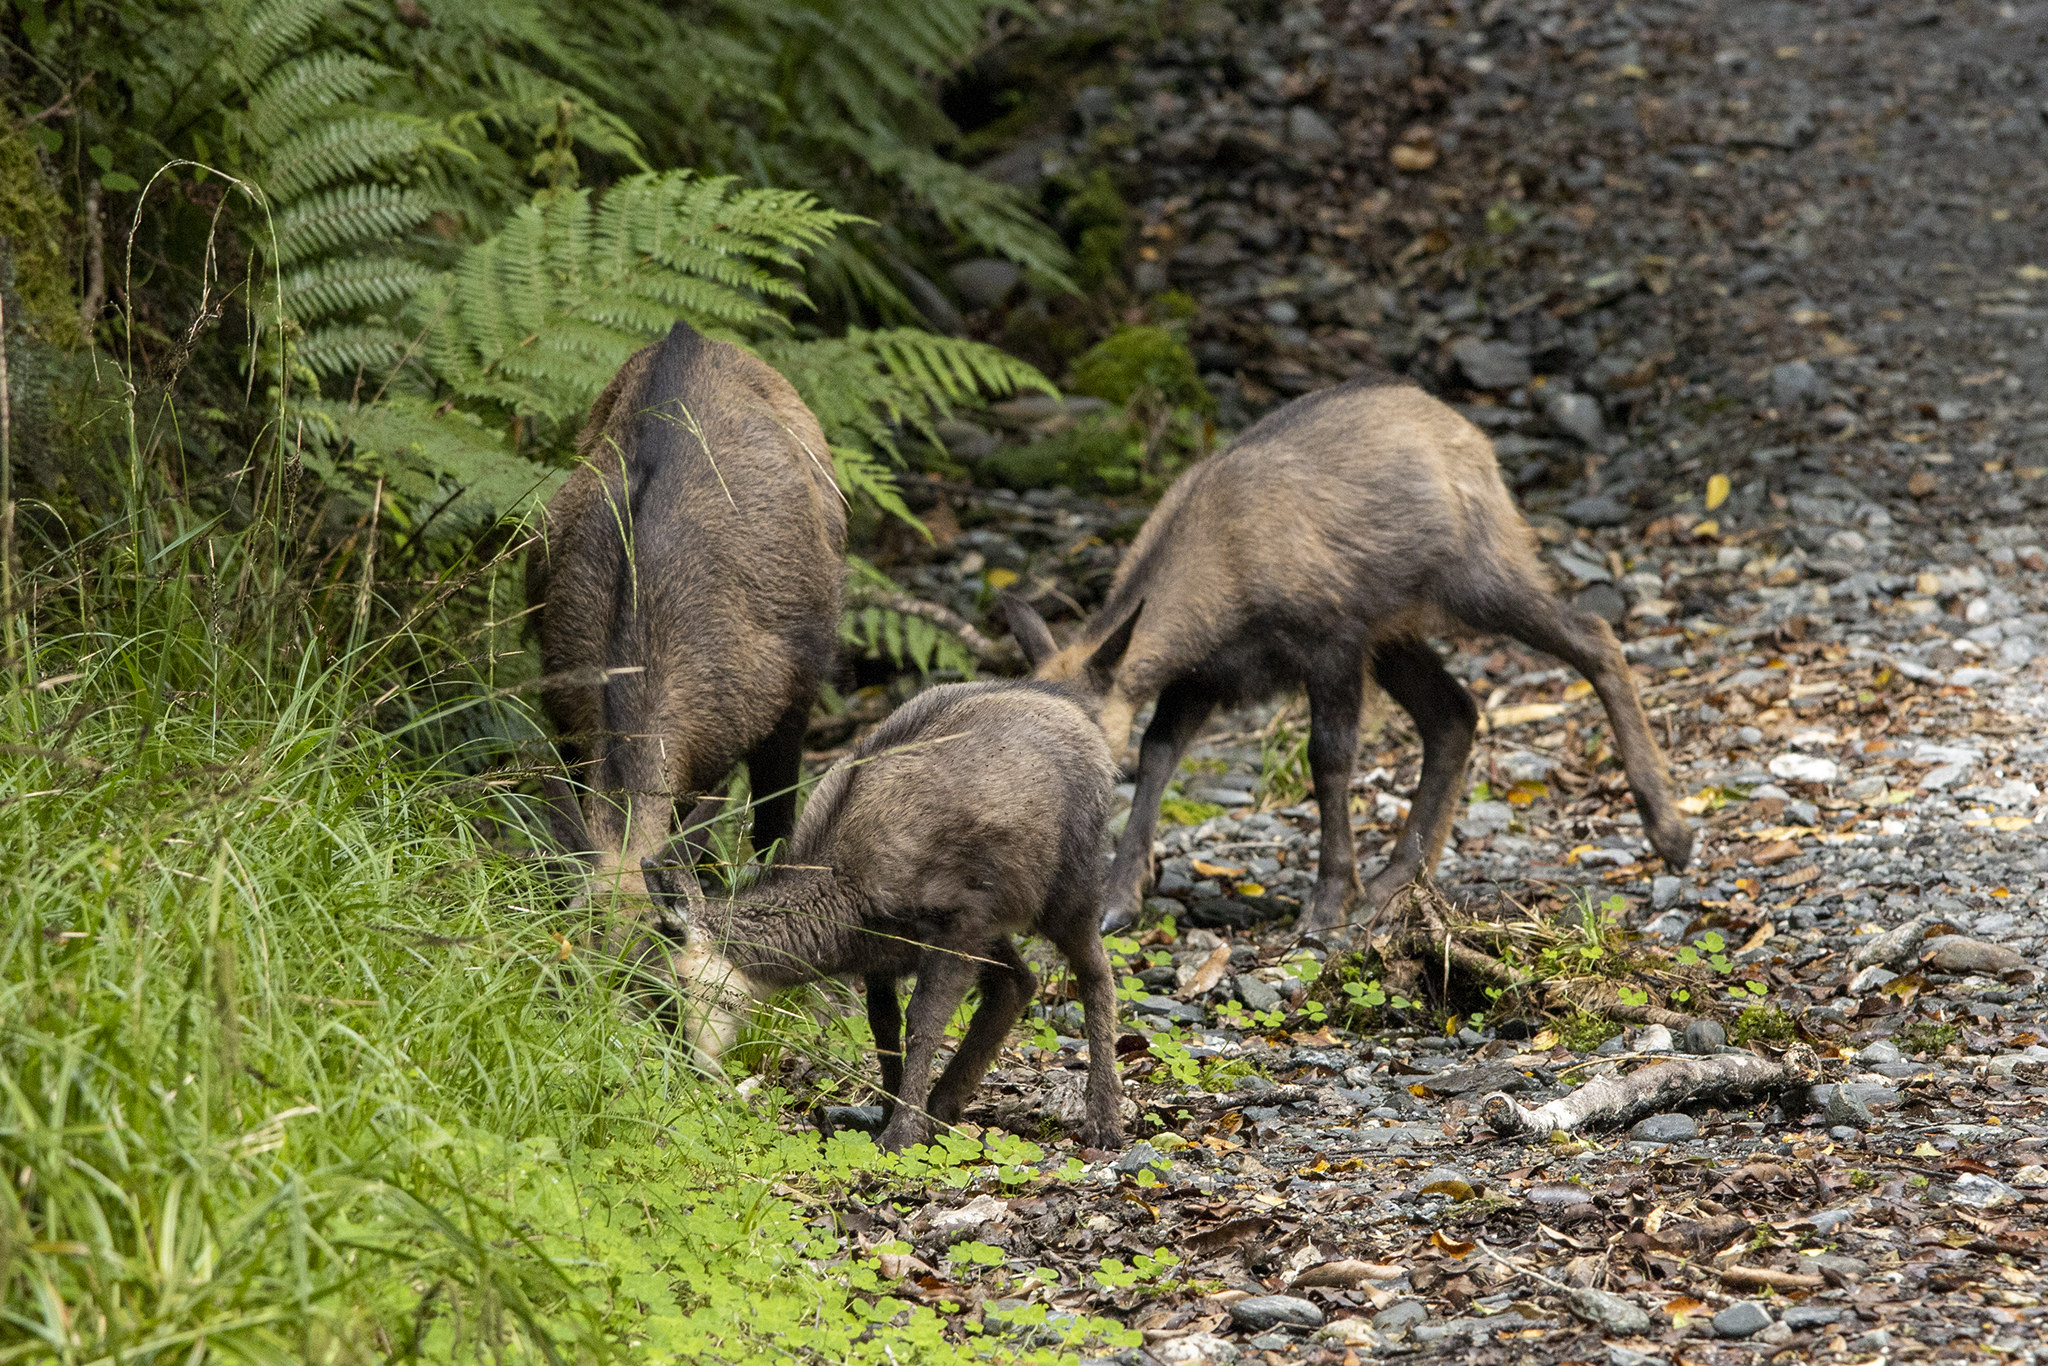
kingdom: Animalia
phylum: Chordata
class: Mammalia
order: Artiodactyla
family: Bovidae
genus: Rupicapra
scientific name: Rupicapra rupicapra
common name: Chamois
